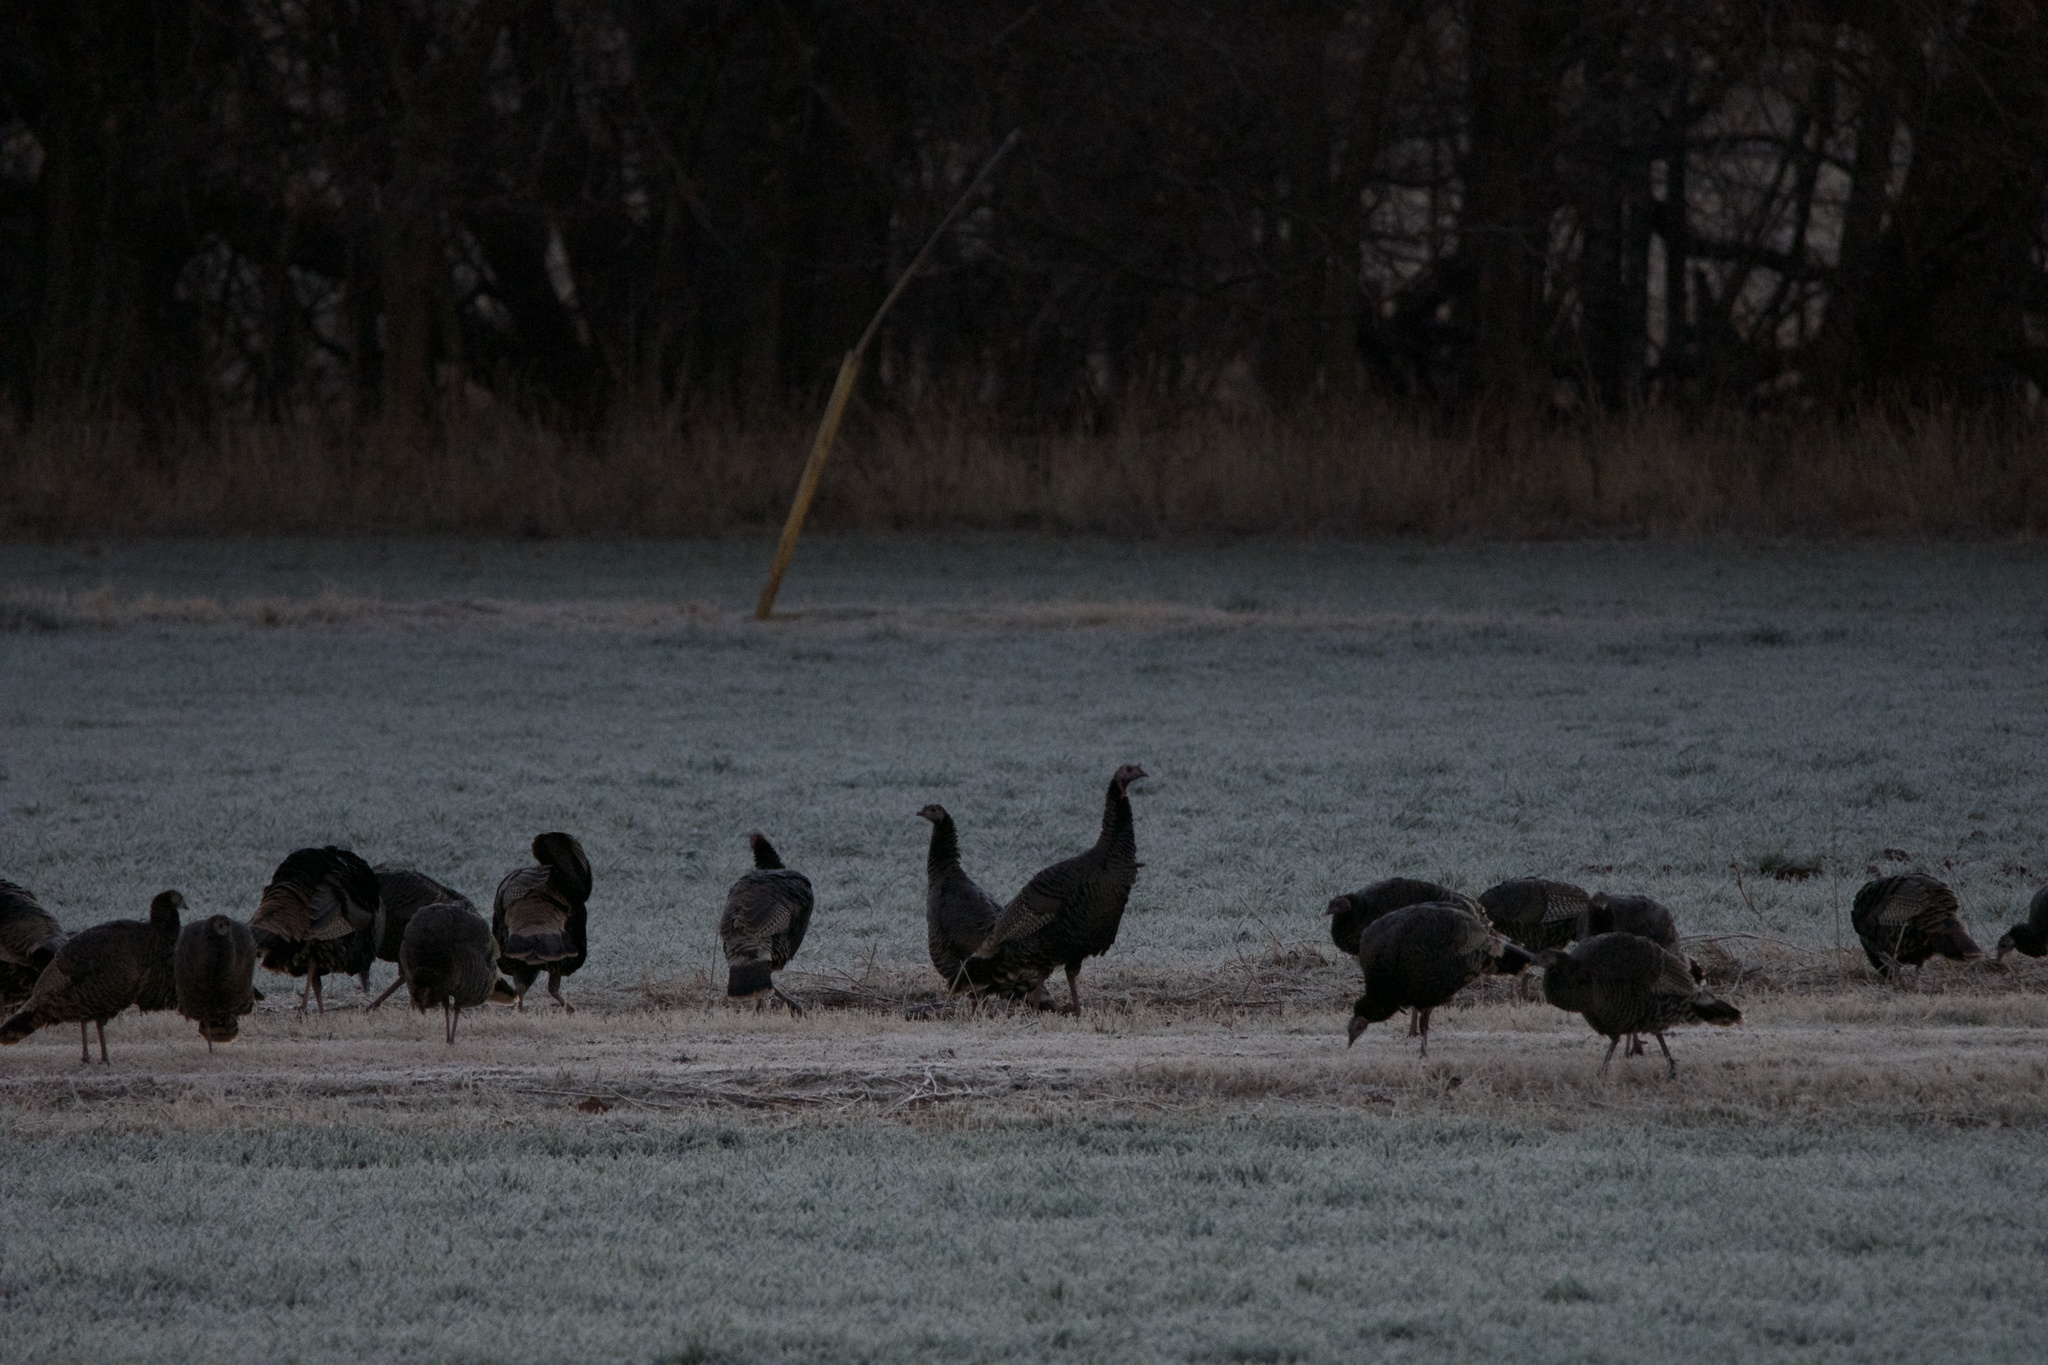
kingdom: Animalia
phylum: Chordata
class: Aves
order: Galliformes
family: Phasianidae
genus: Meleagris
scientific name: Meleagris gallopavo
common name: Wild turkey
